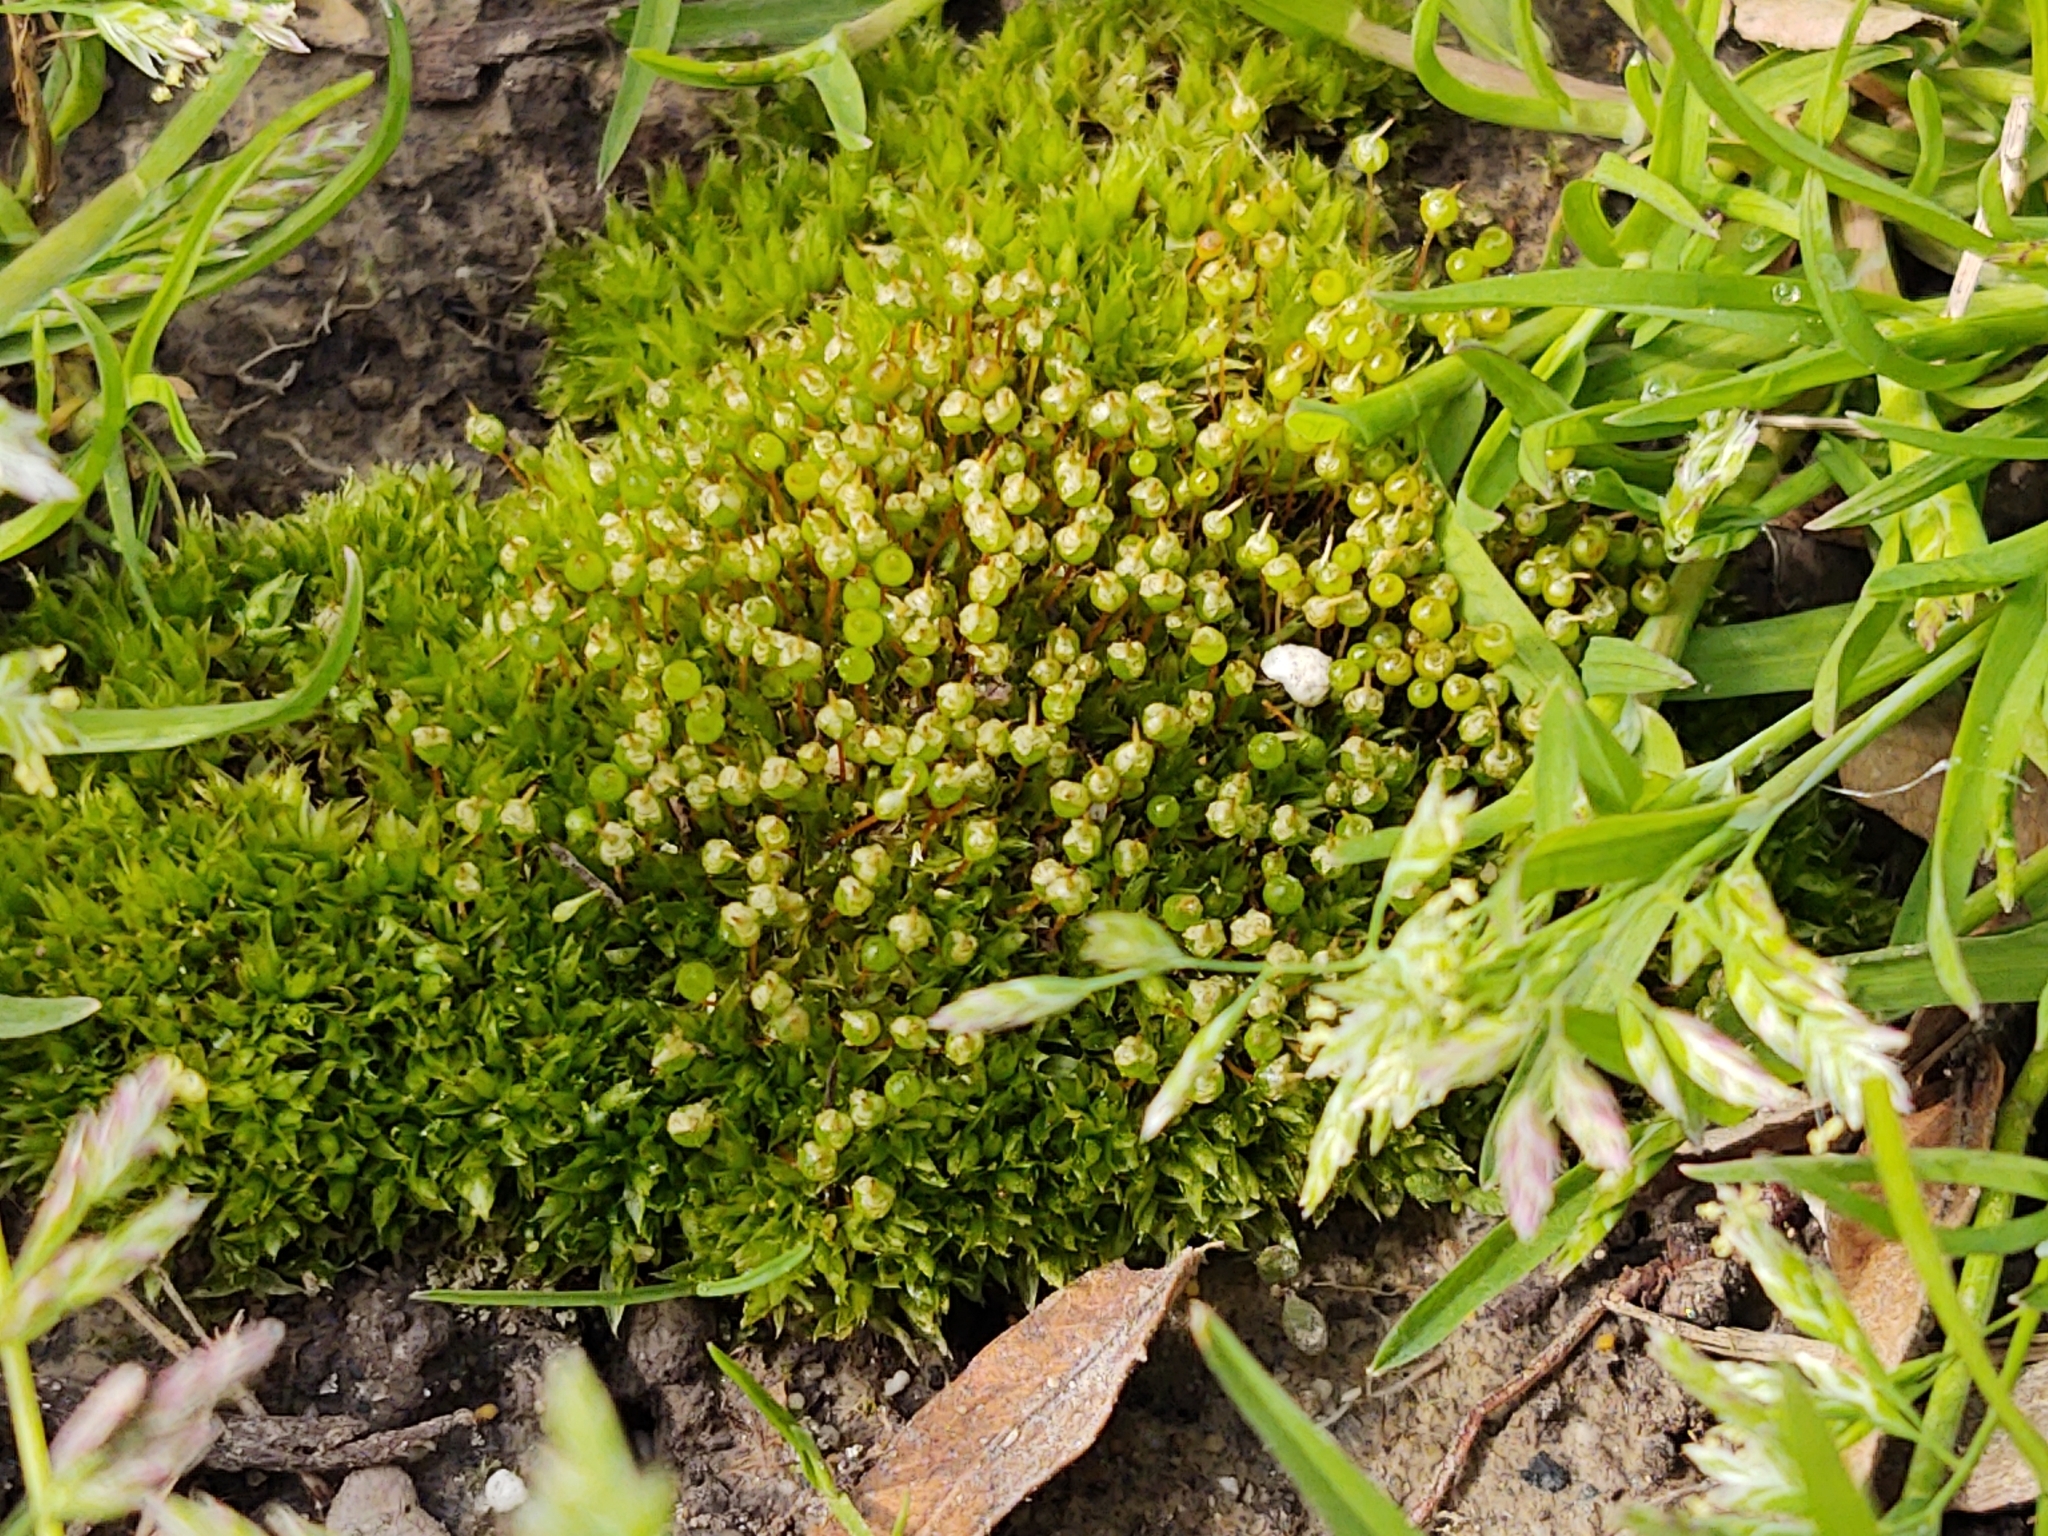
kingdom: Plantae
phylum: Bryophyta
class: Bryopsida
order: Funariales
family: Funariaceae
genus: Physcomitrium
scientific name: Physcomitrium pyriforme
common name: Common bladder-moss
